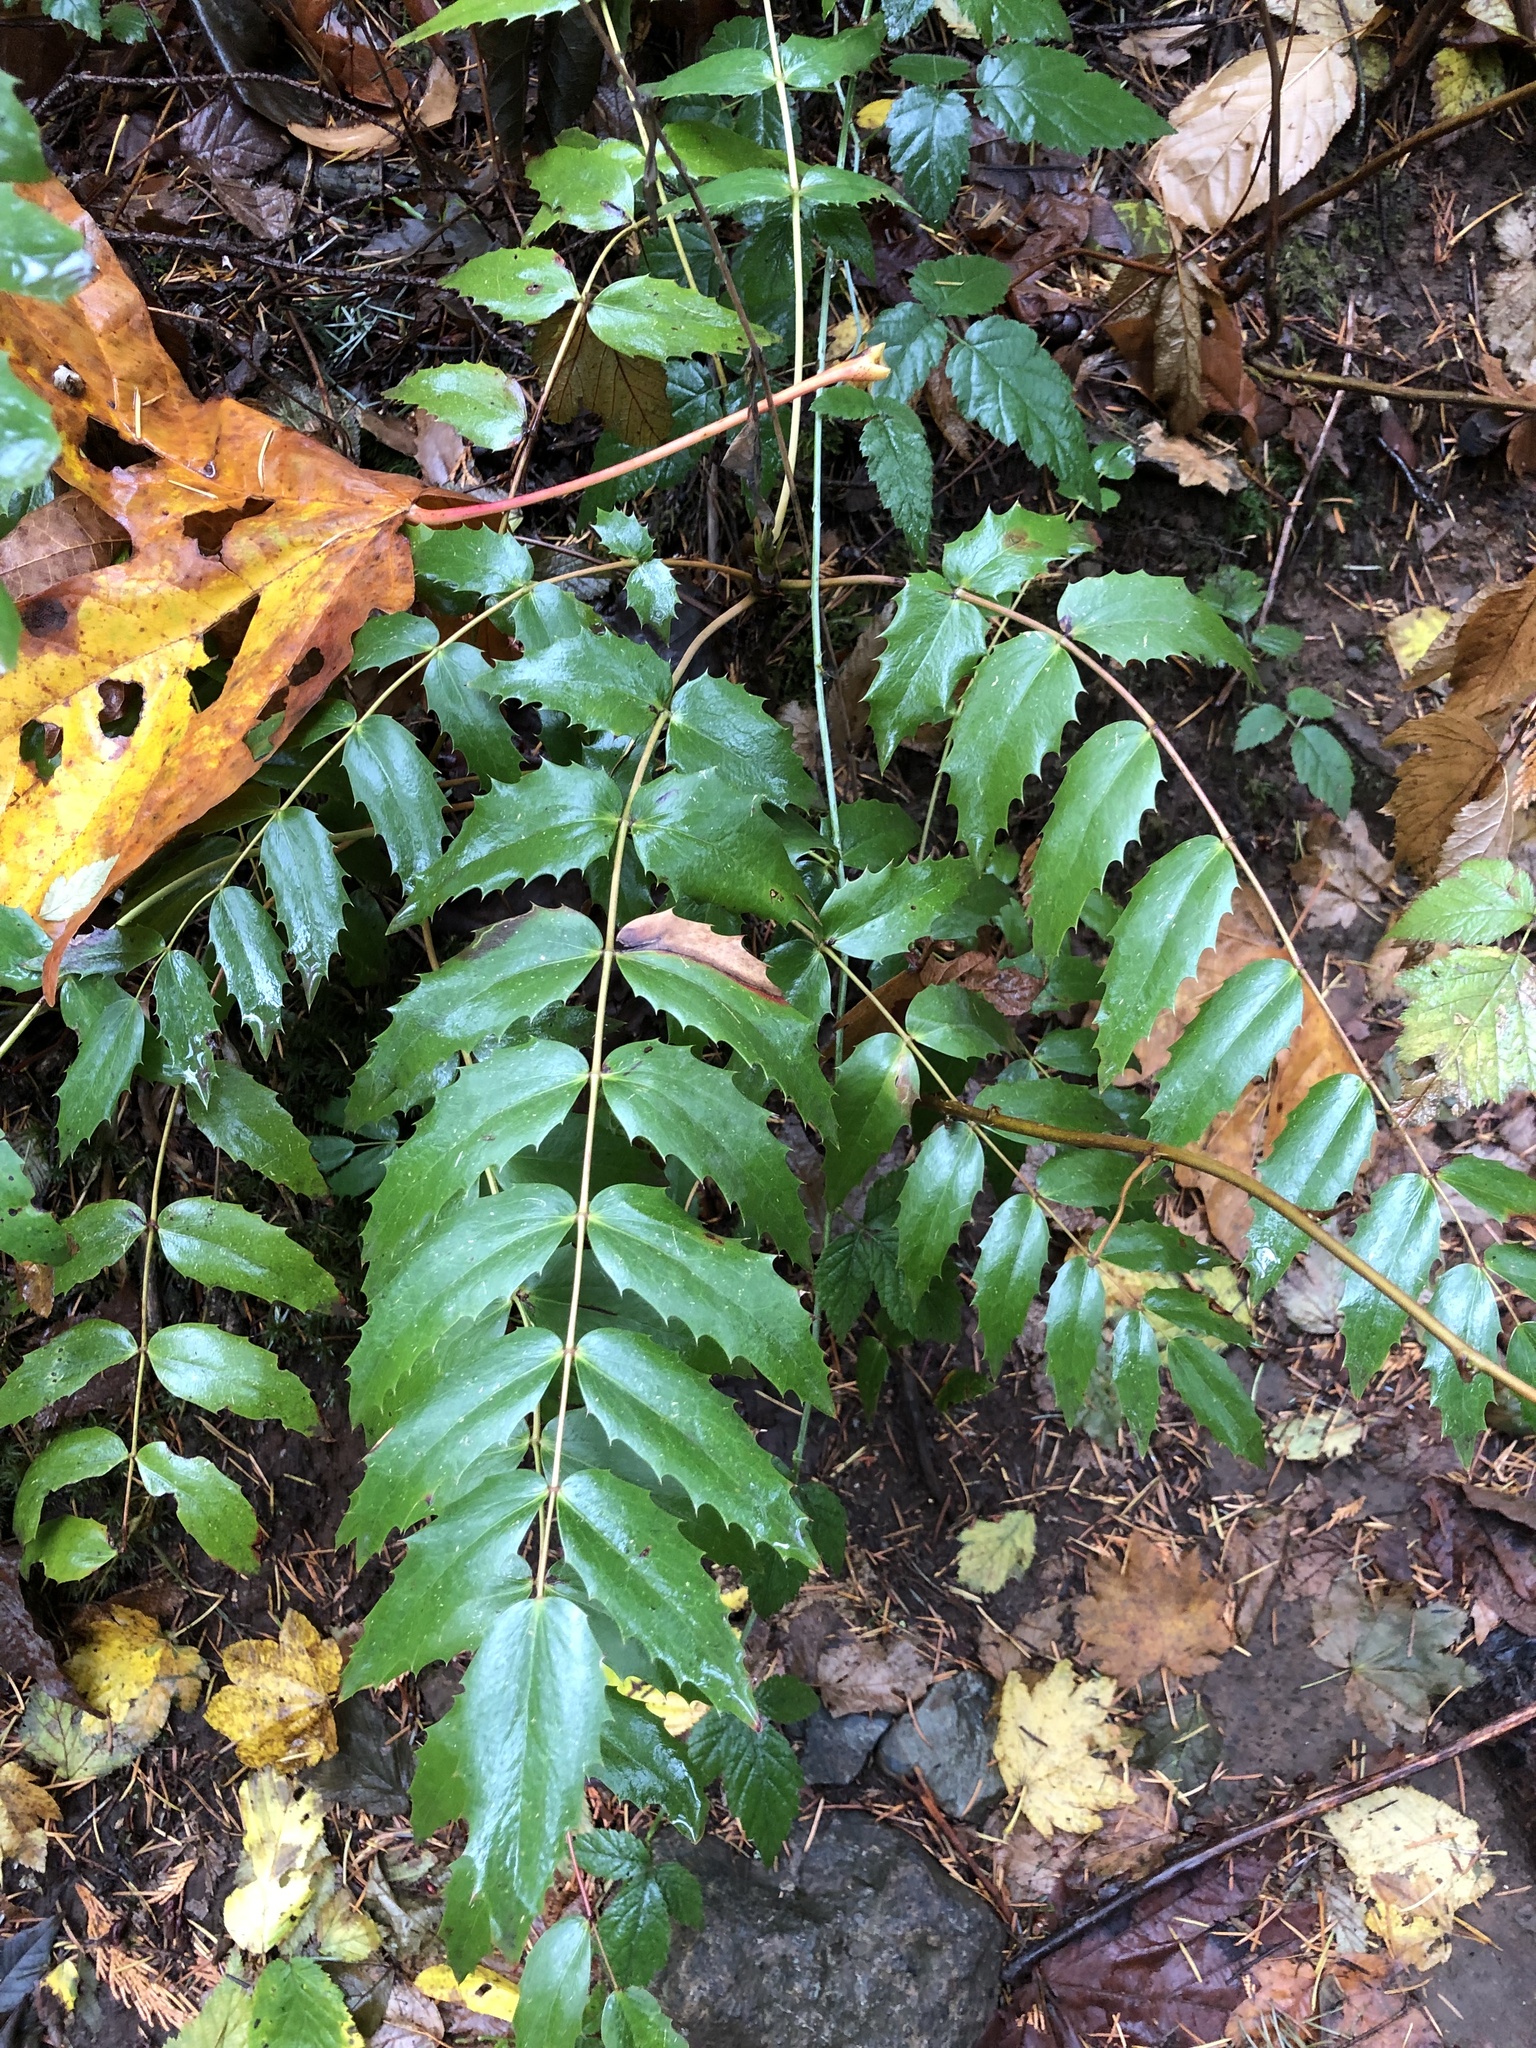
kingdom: Plantae
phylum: Tracheophyta
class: Magnoliopsida
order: Ranunculales
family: Berberidaceae
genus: Mahonia
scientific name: Mahonia nervosa
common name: Cascade oregon-grape
